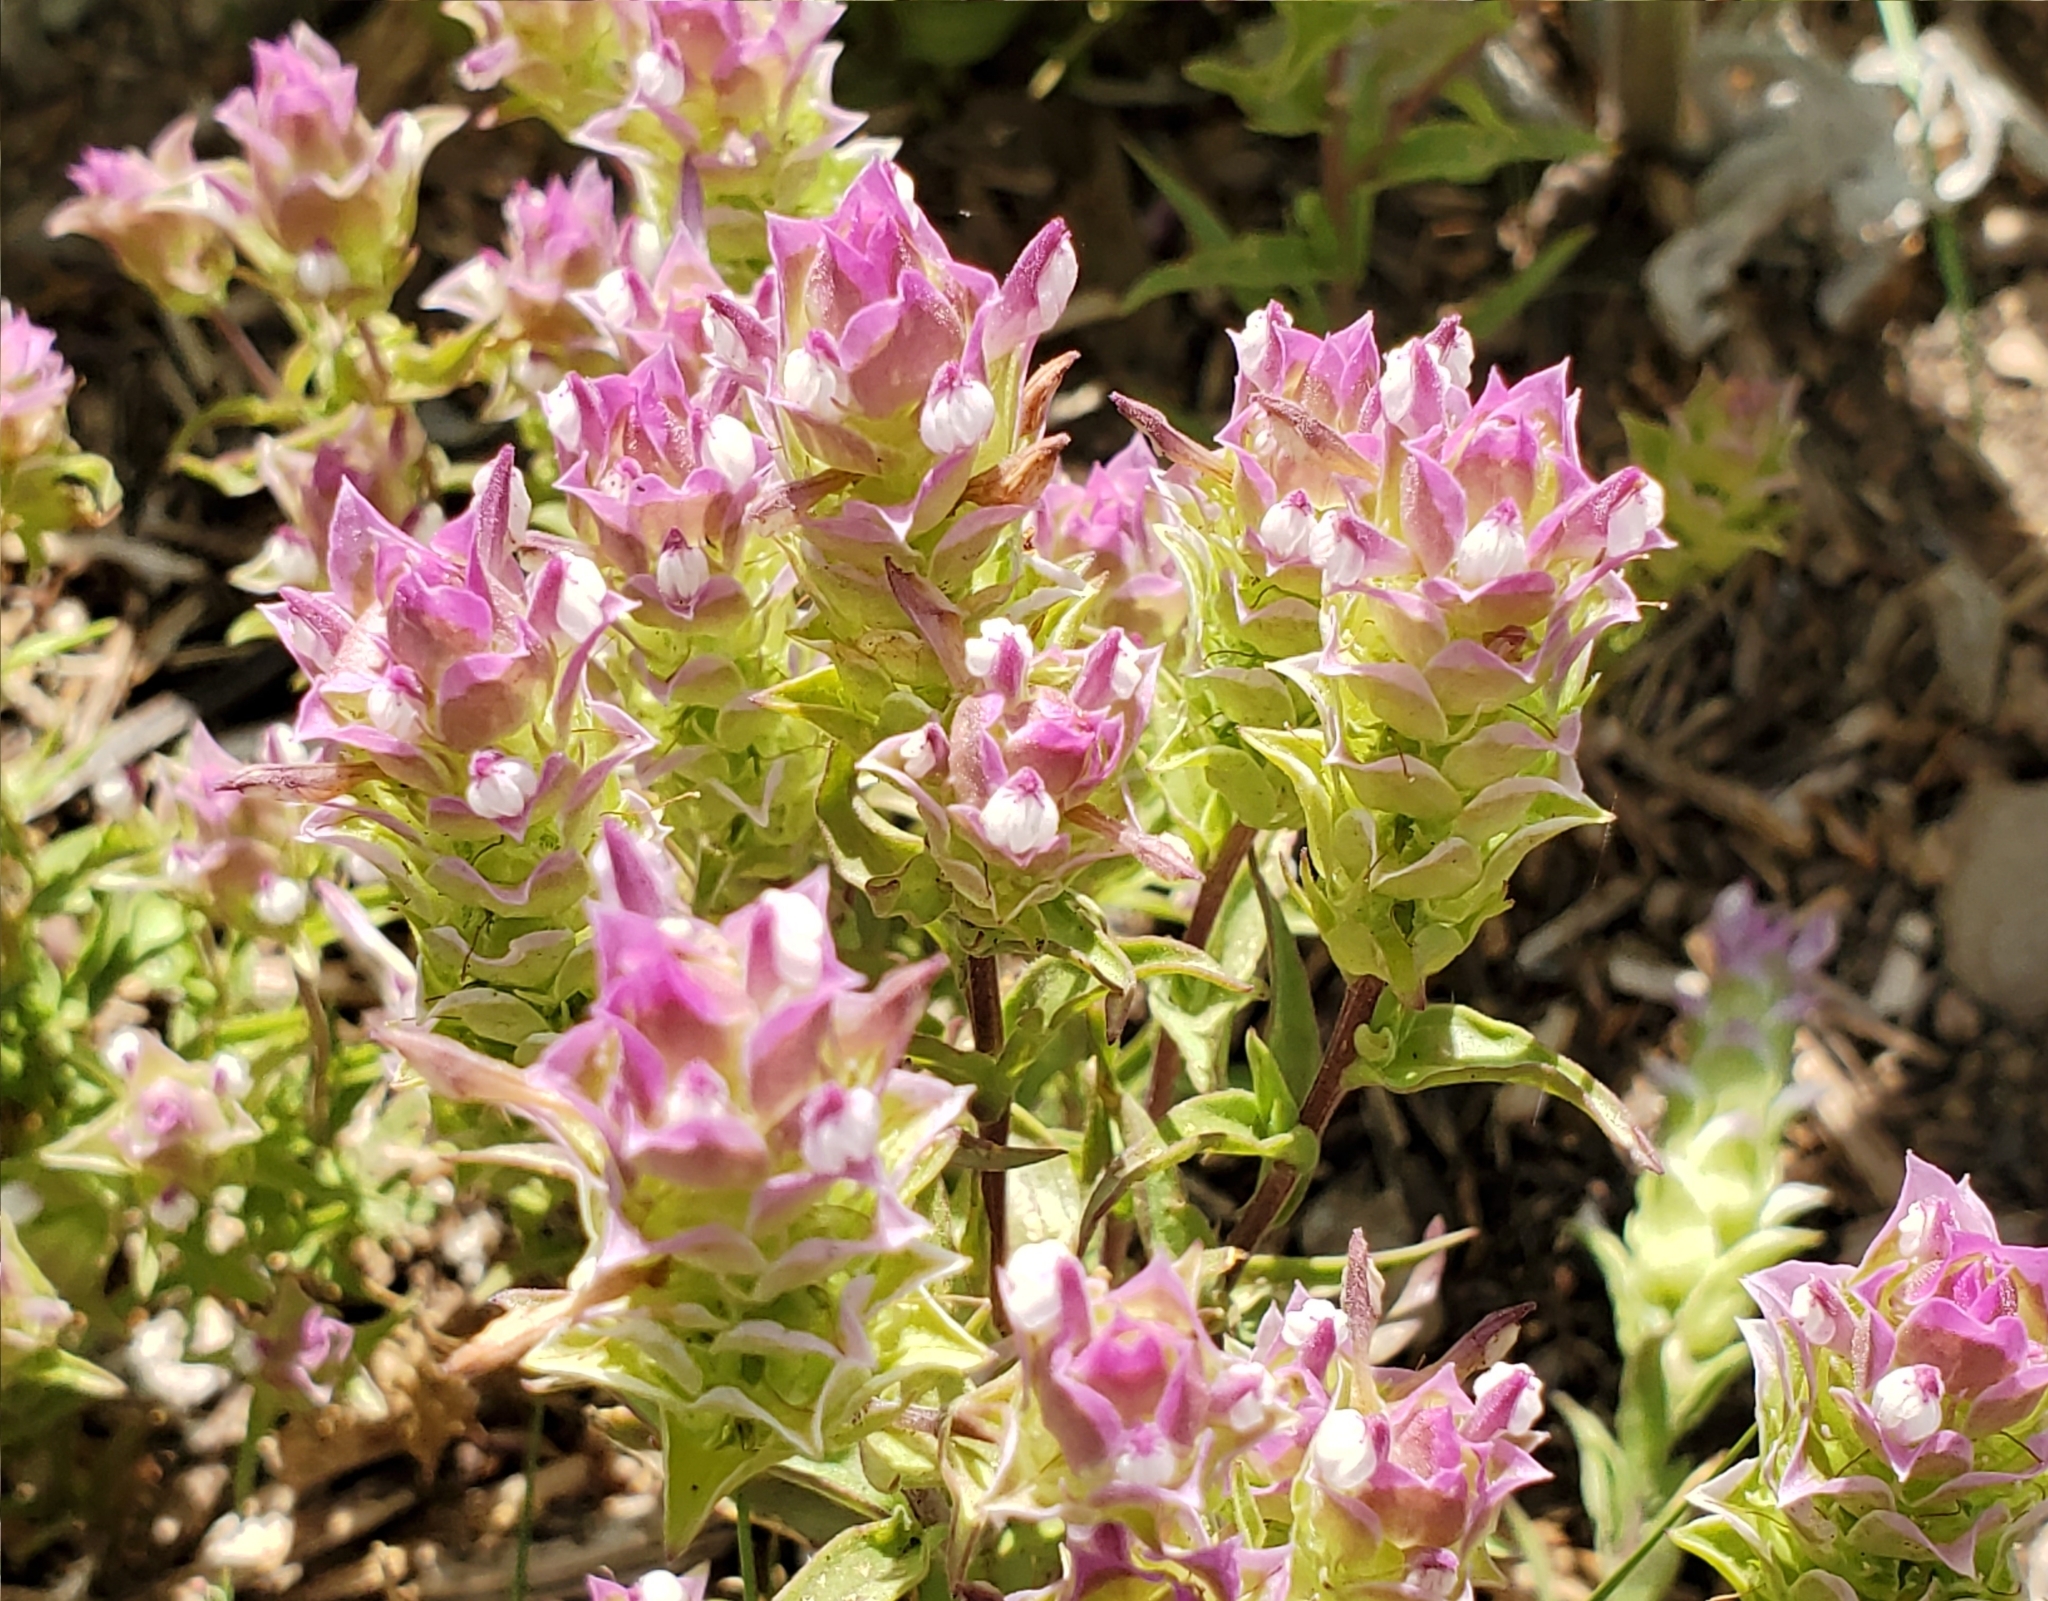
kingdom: Plantae
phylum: Tracheophyta
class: Magnoliopsida
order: Lamiales
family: Orobanchaceae
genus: Orthocarpus
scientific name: Orthocarpus cuspidatus
